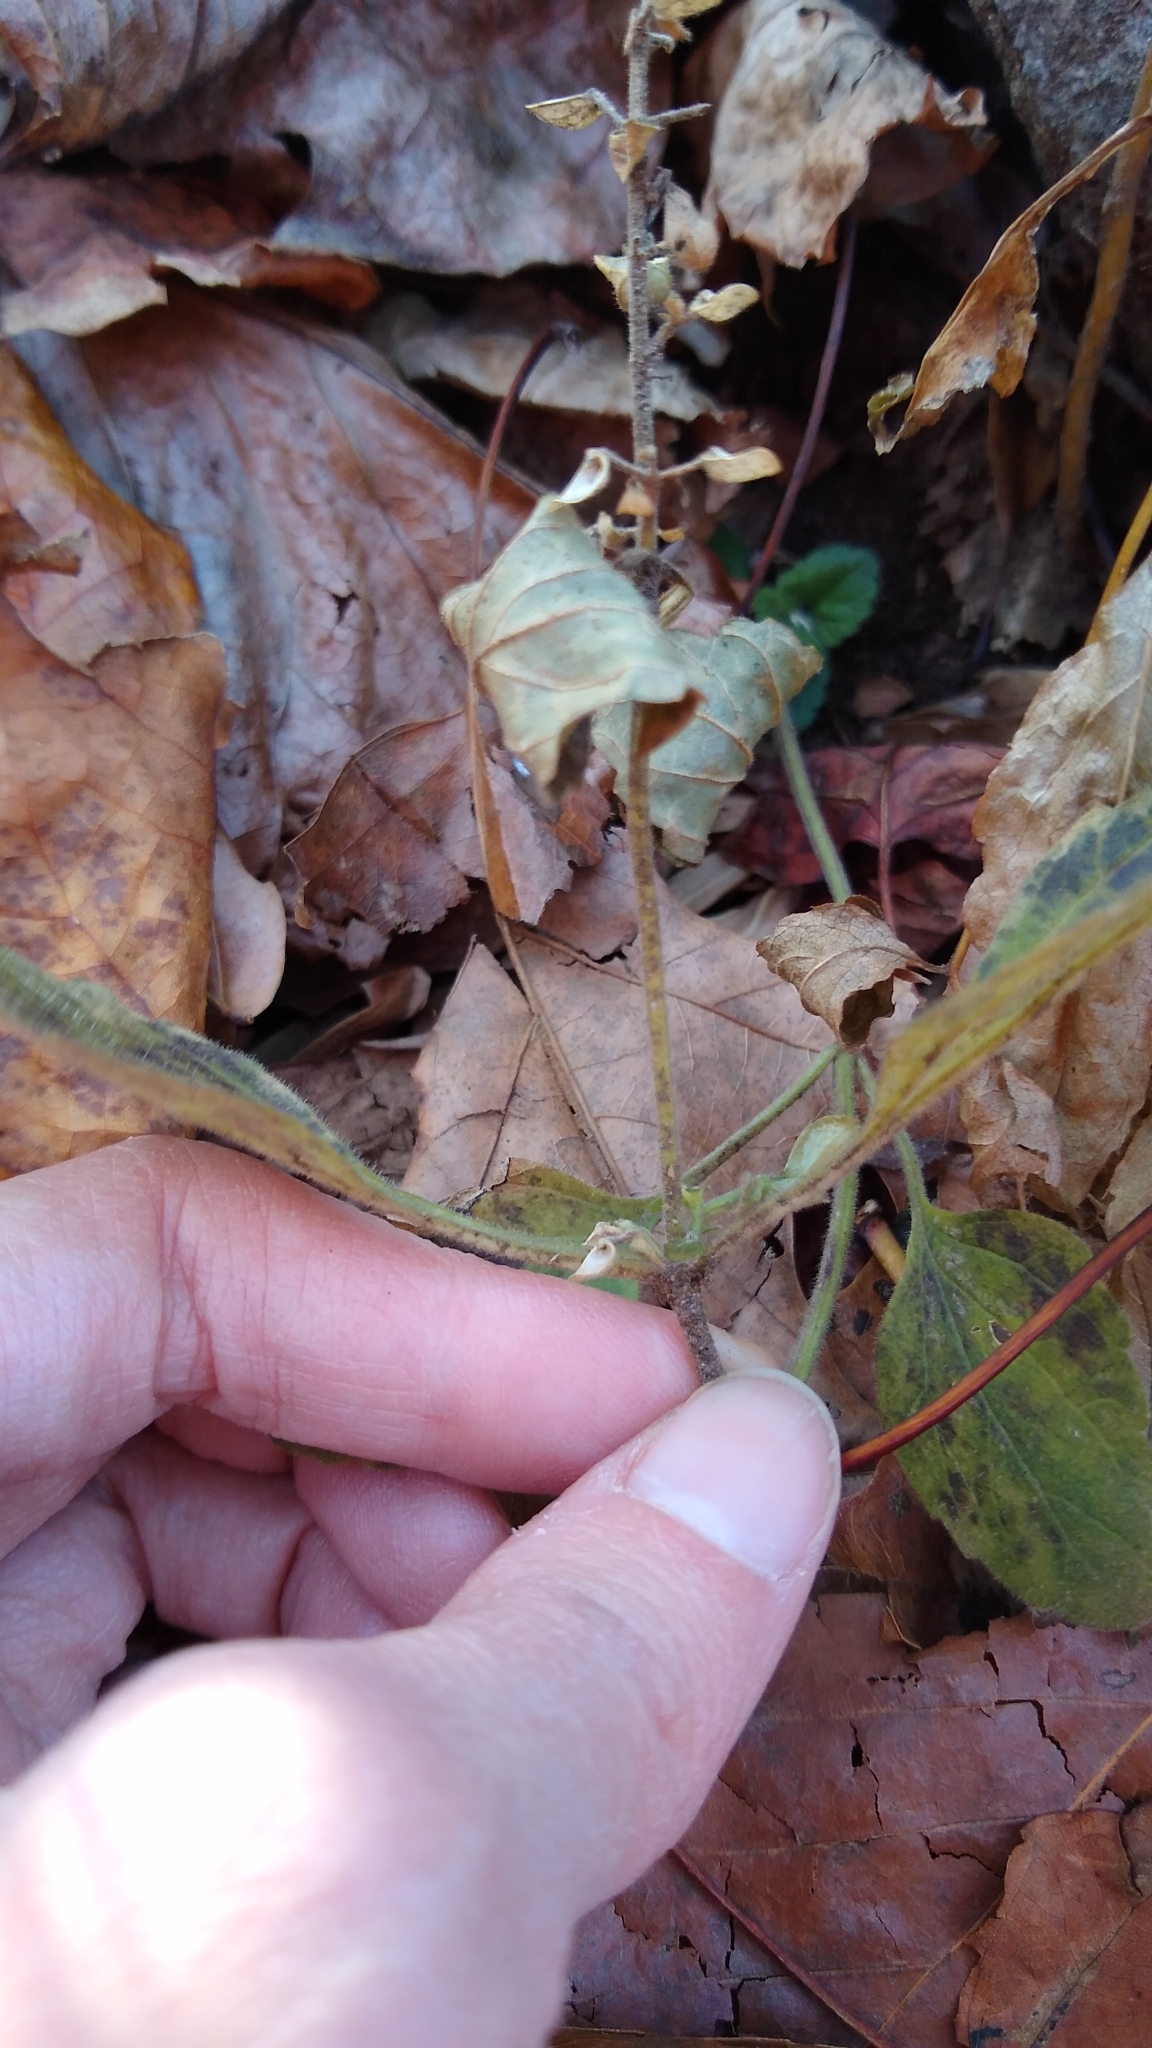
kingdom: Plantae
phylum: Tracheophyta
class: Magnoliopsida
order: Lamiales
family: Lamiaceae
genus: Scutellaria
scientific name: Scutellaria elliptica
